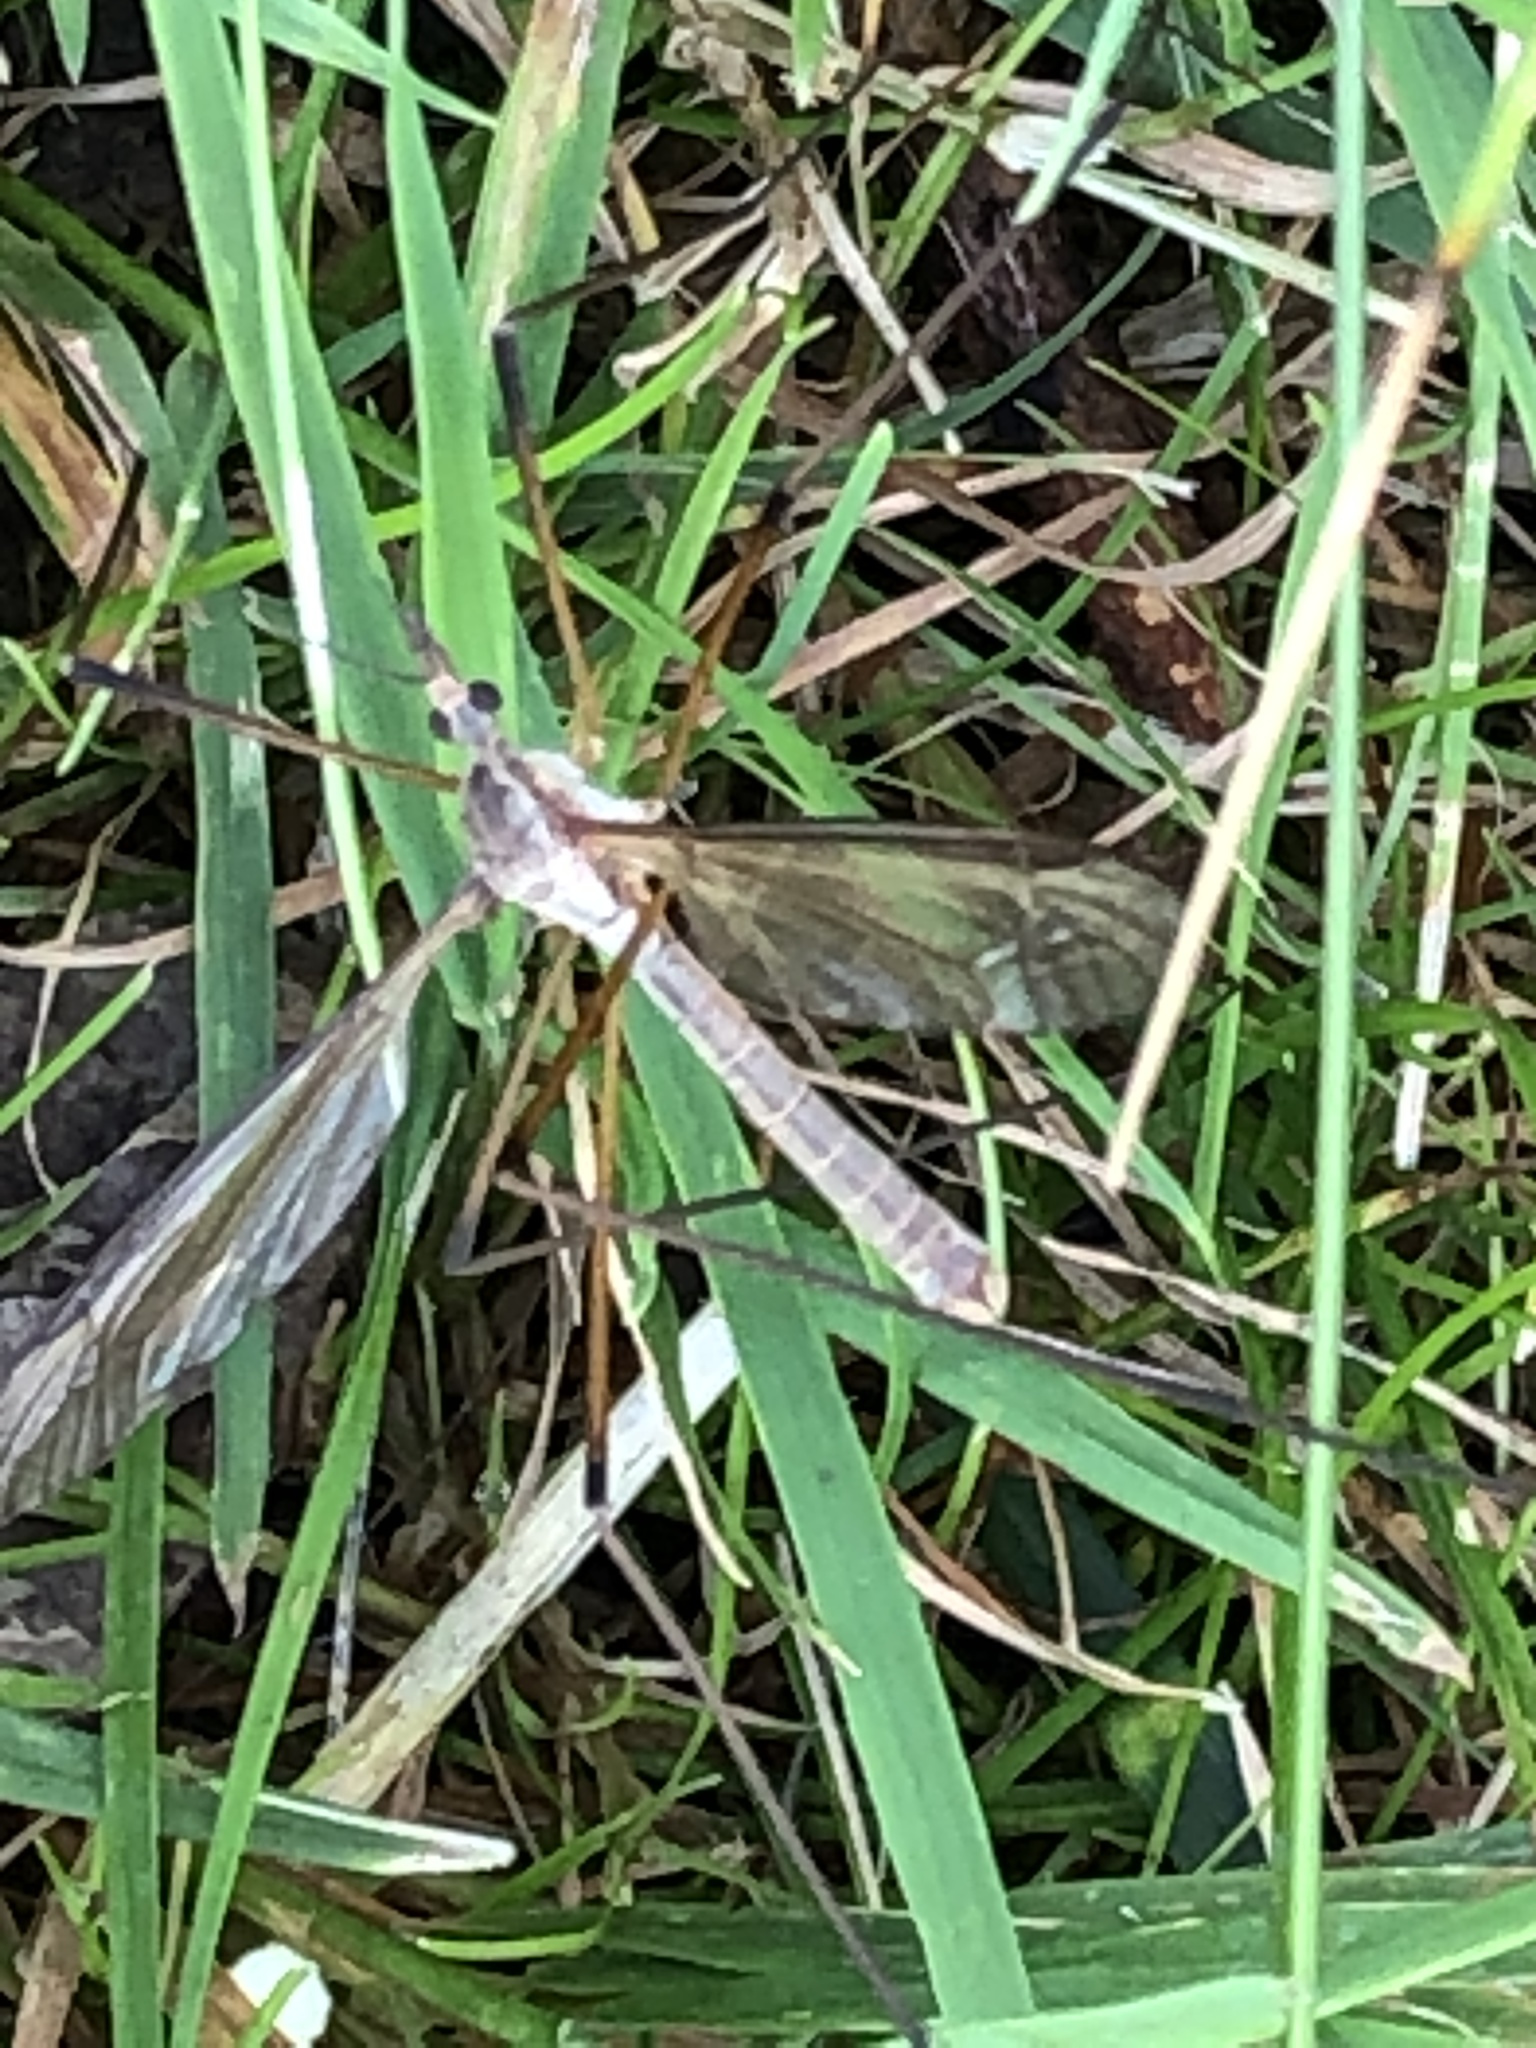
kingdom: Animalia
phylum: Arthropoda
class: Insecta
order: Diptera
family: Tipulidae
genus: Tipula
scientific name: Tipula paludosa
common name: European cranefly
